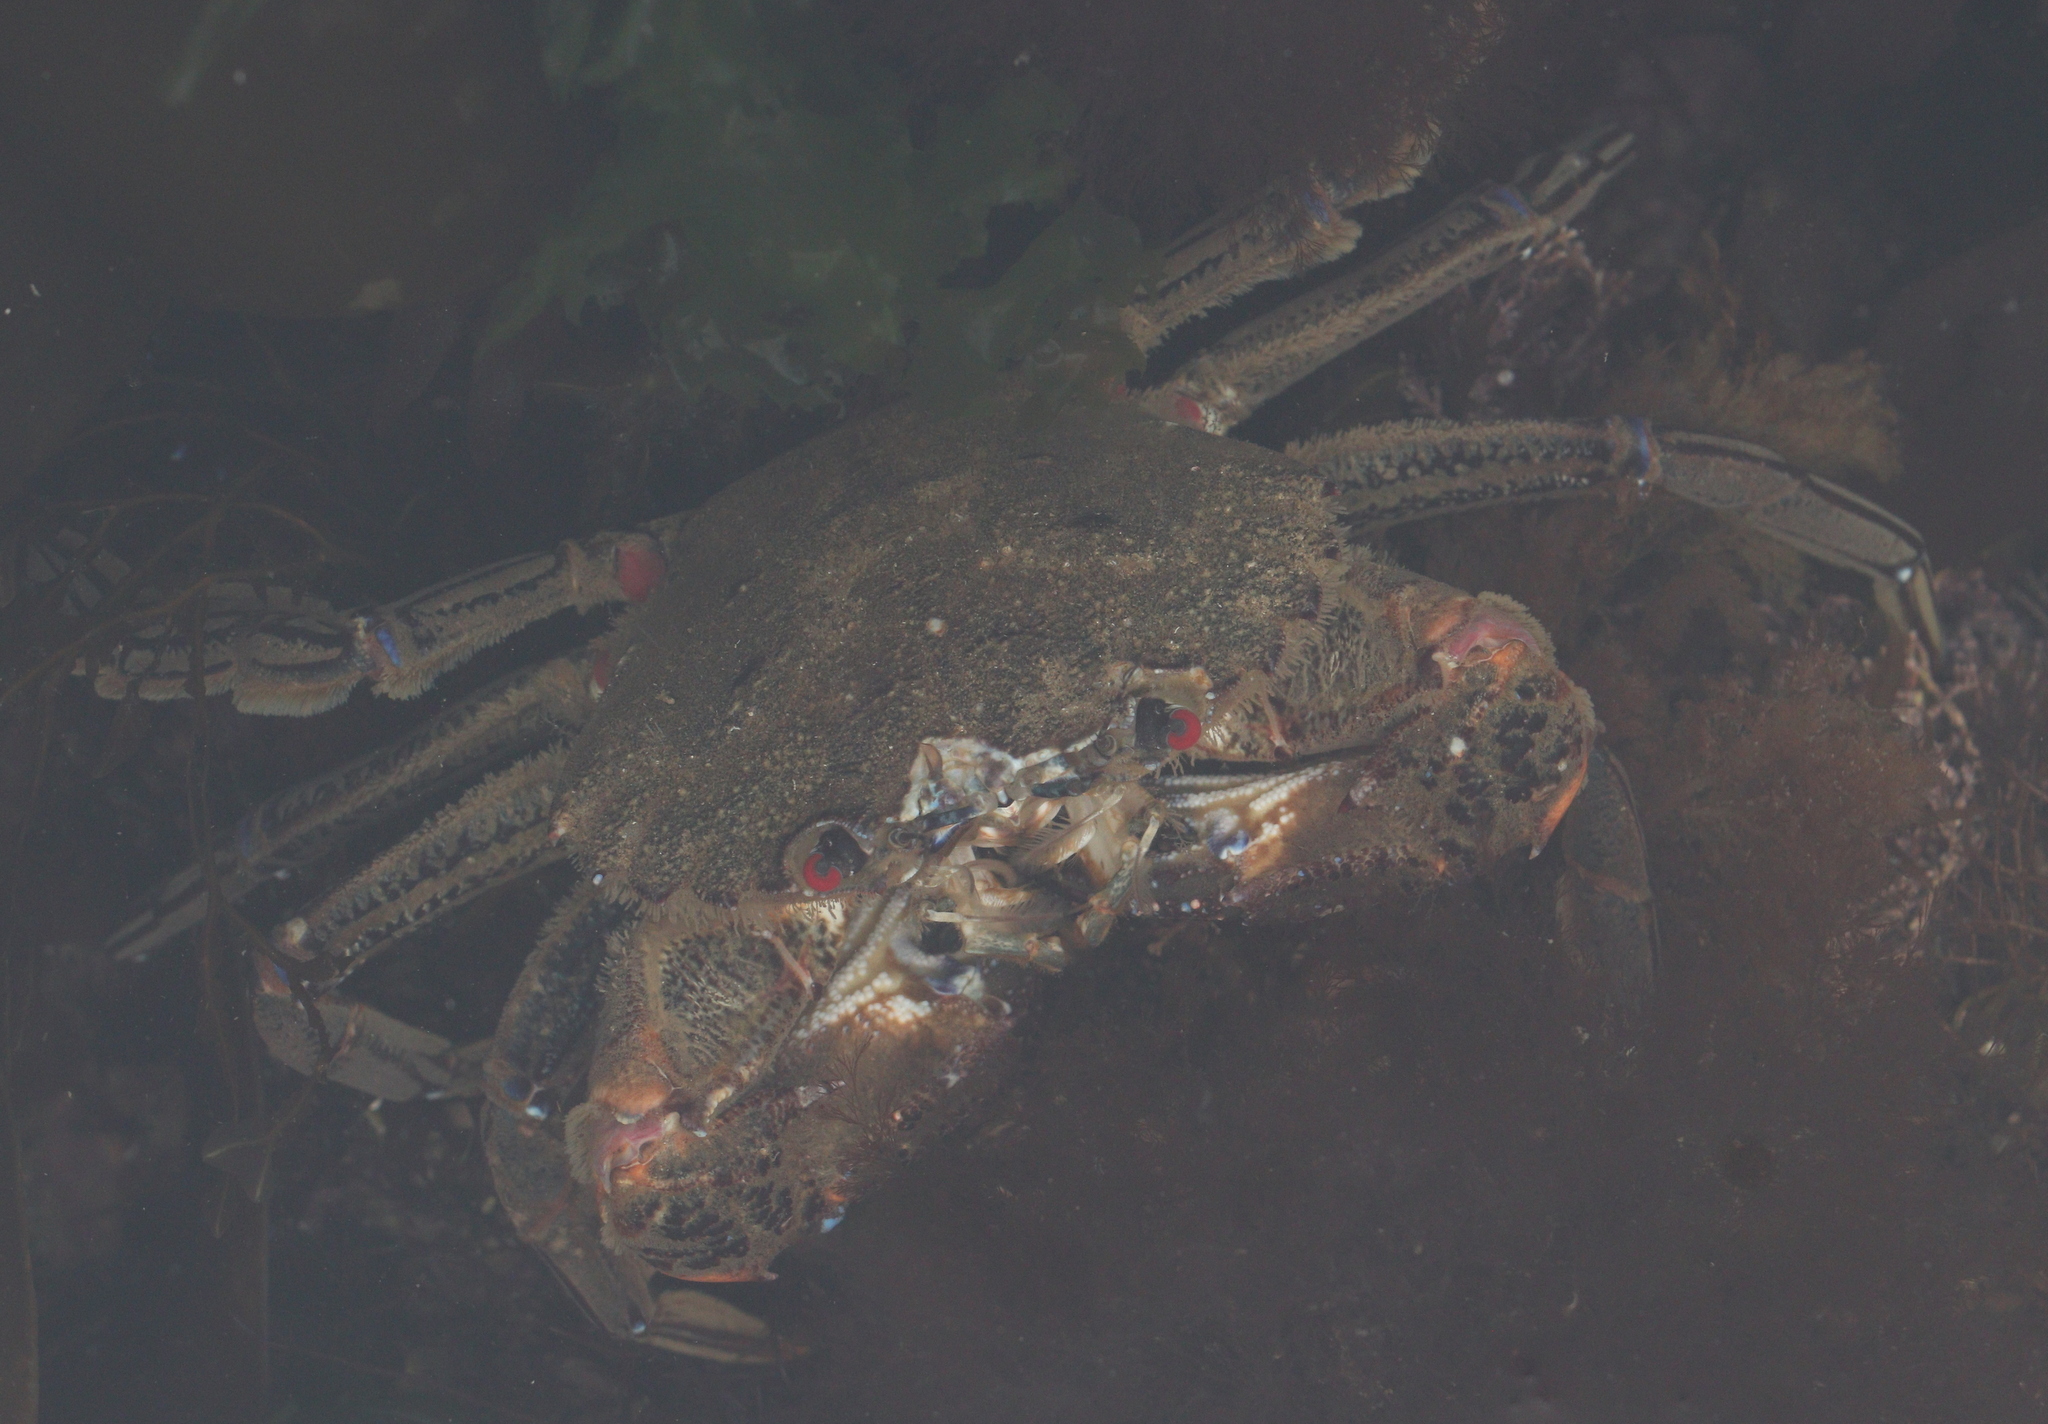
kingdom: Animalia
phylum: Arthropoda
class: Malacostraca
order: Decapoda
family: Polybiidae
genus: Necora
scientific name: Necora puber
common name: Velvet swimming crab
